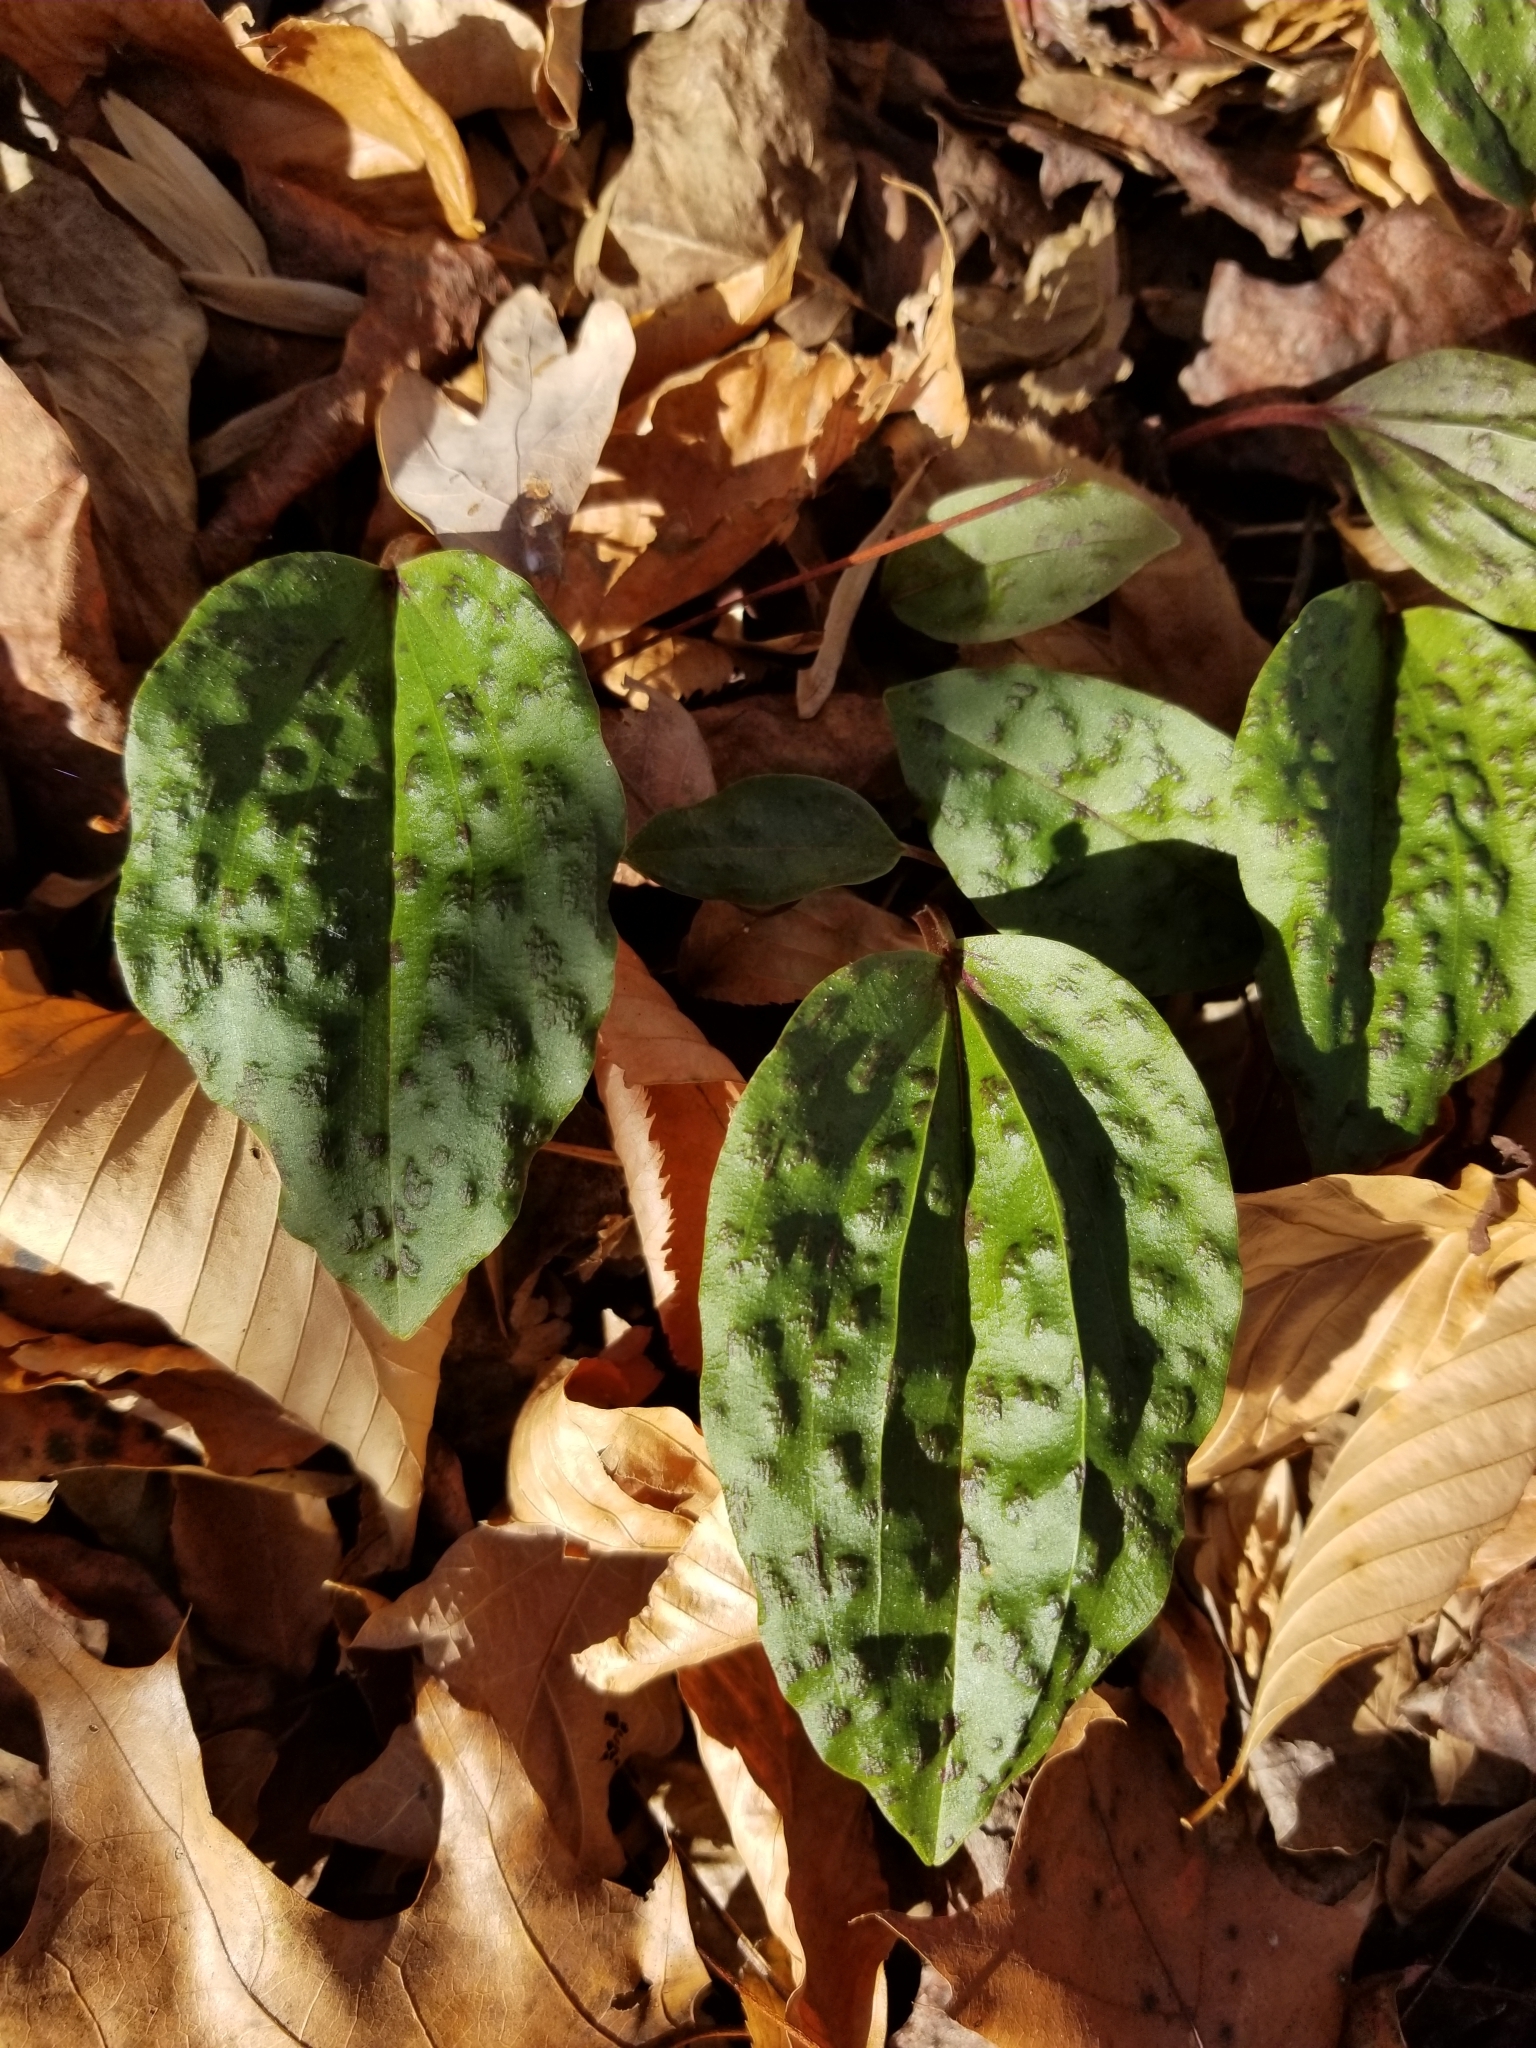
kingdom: Plantae
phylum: Tracheophyta
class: Liliopsida
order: Asparagales
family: Orchidaceae
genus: Tipularia
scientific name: Tipularia discolor
